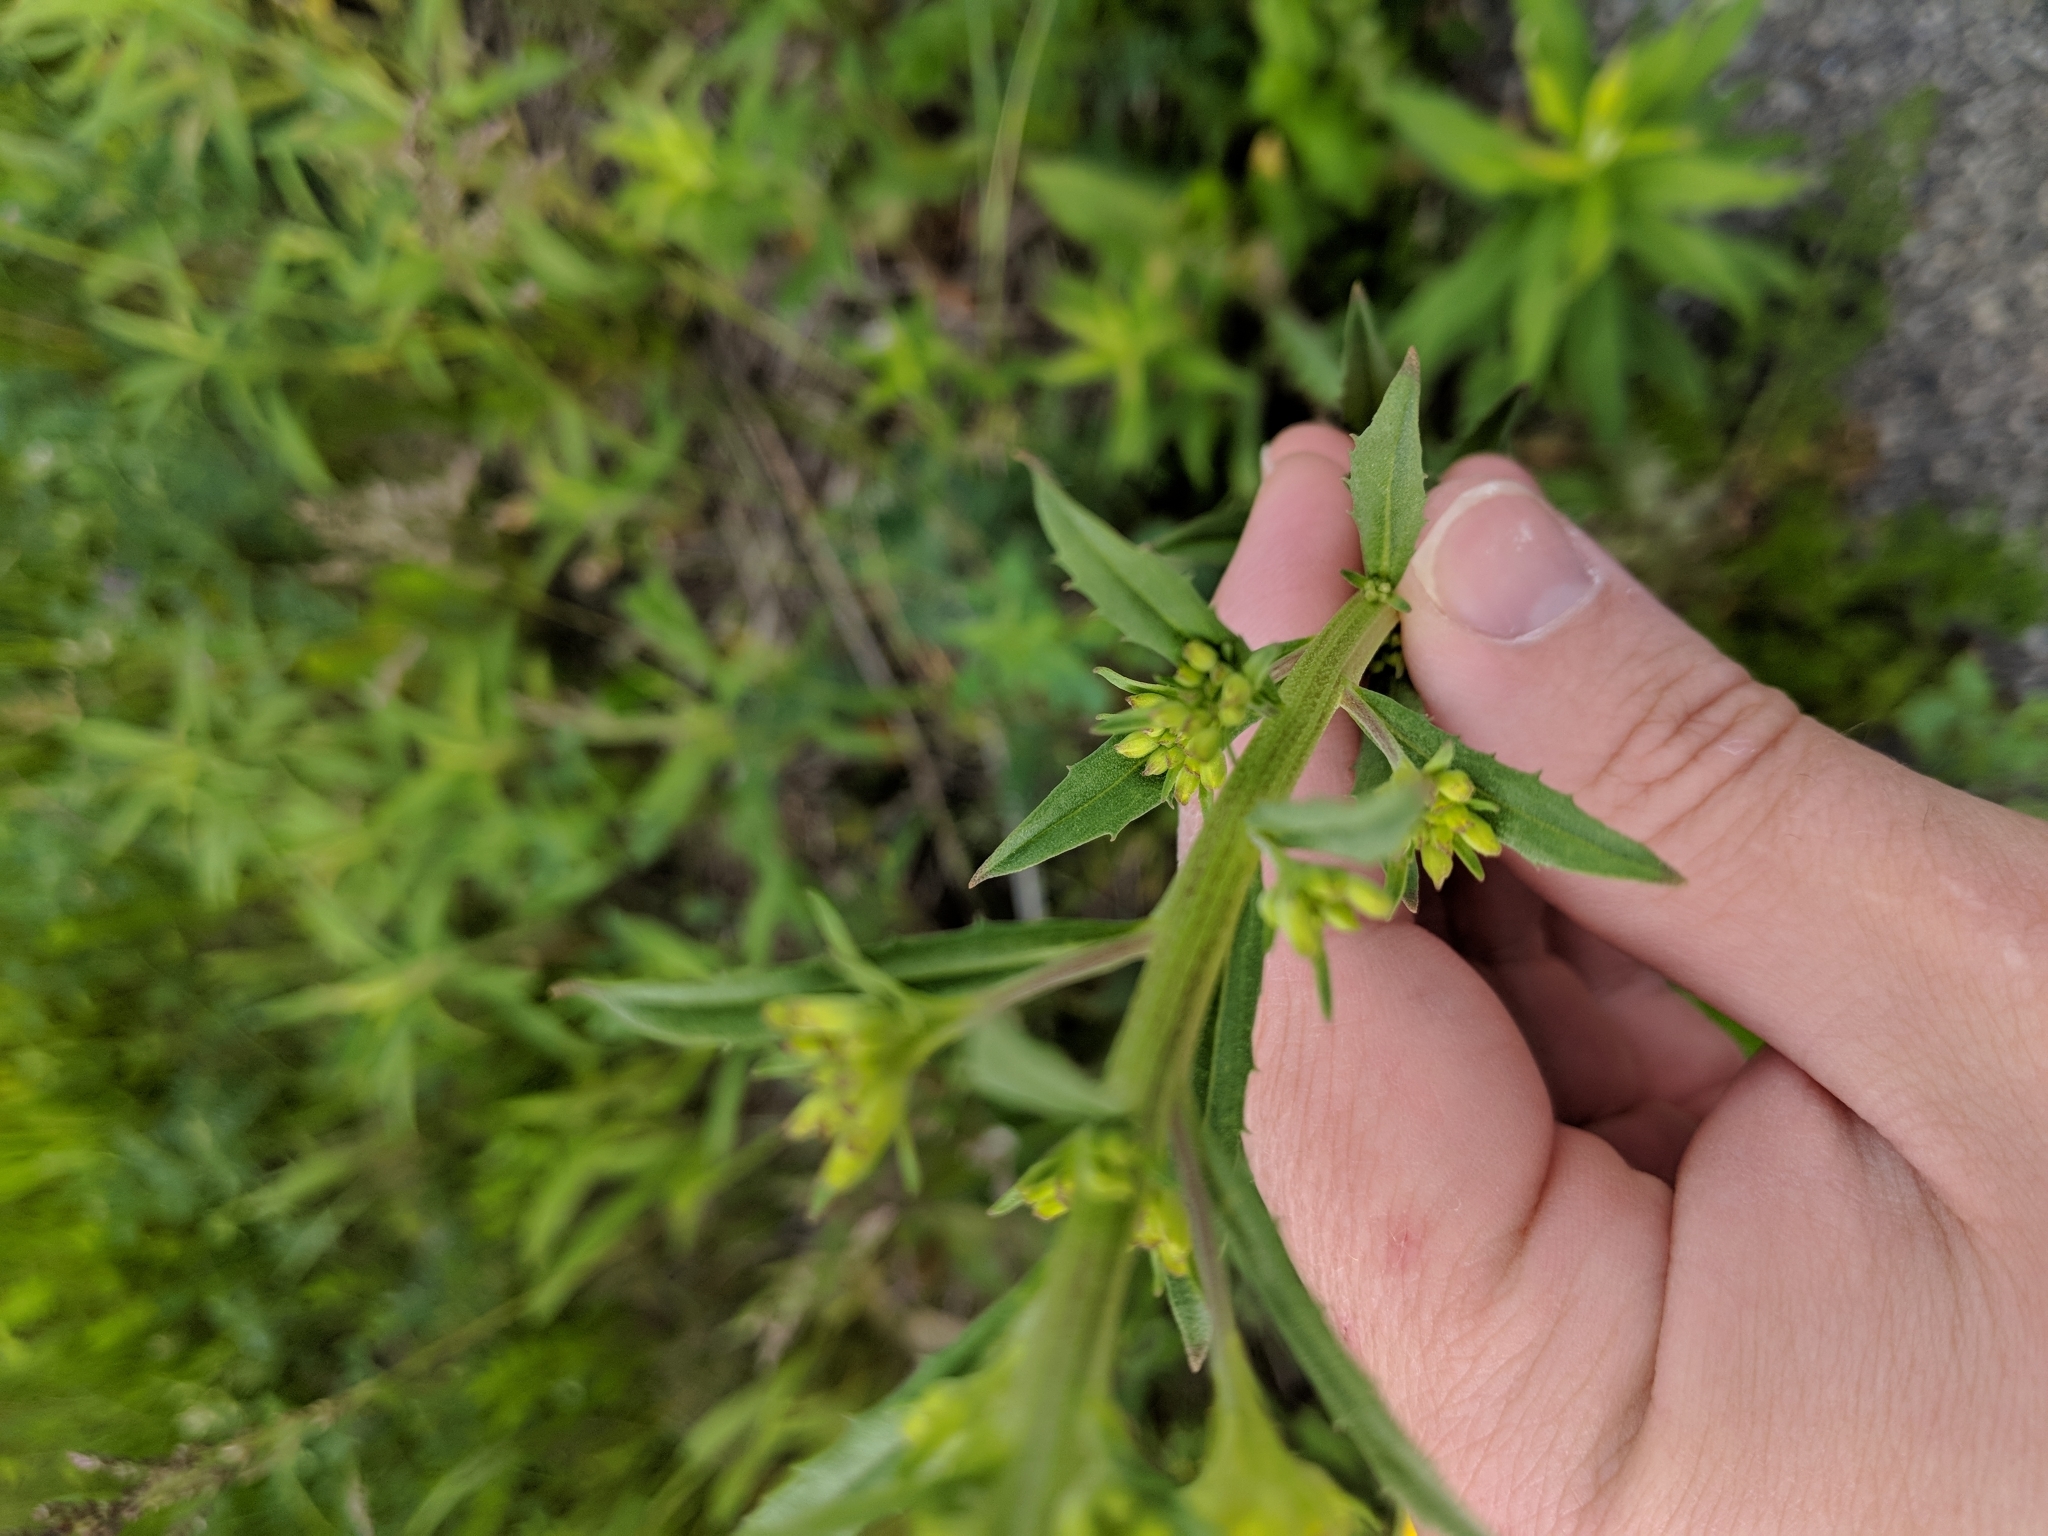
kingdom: Plantae
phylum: Tracheophyta
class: Magnoliopsida
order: Brassicales
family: Brassicaceae
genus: Erysimum
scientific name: Erysimum cheiranthoides
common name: Treacle mustard
